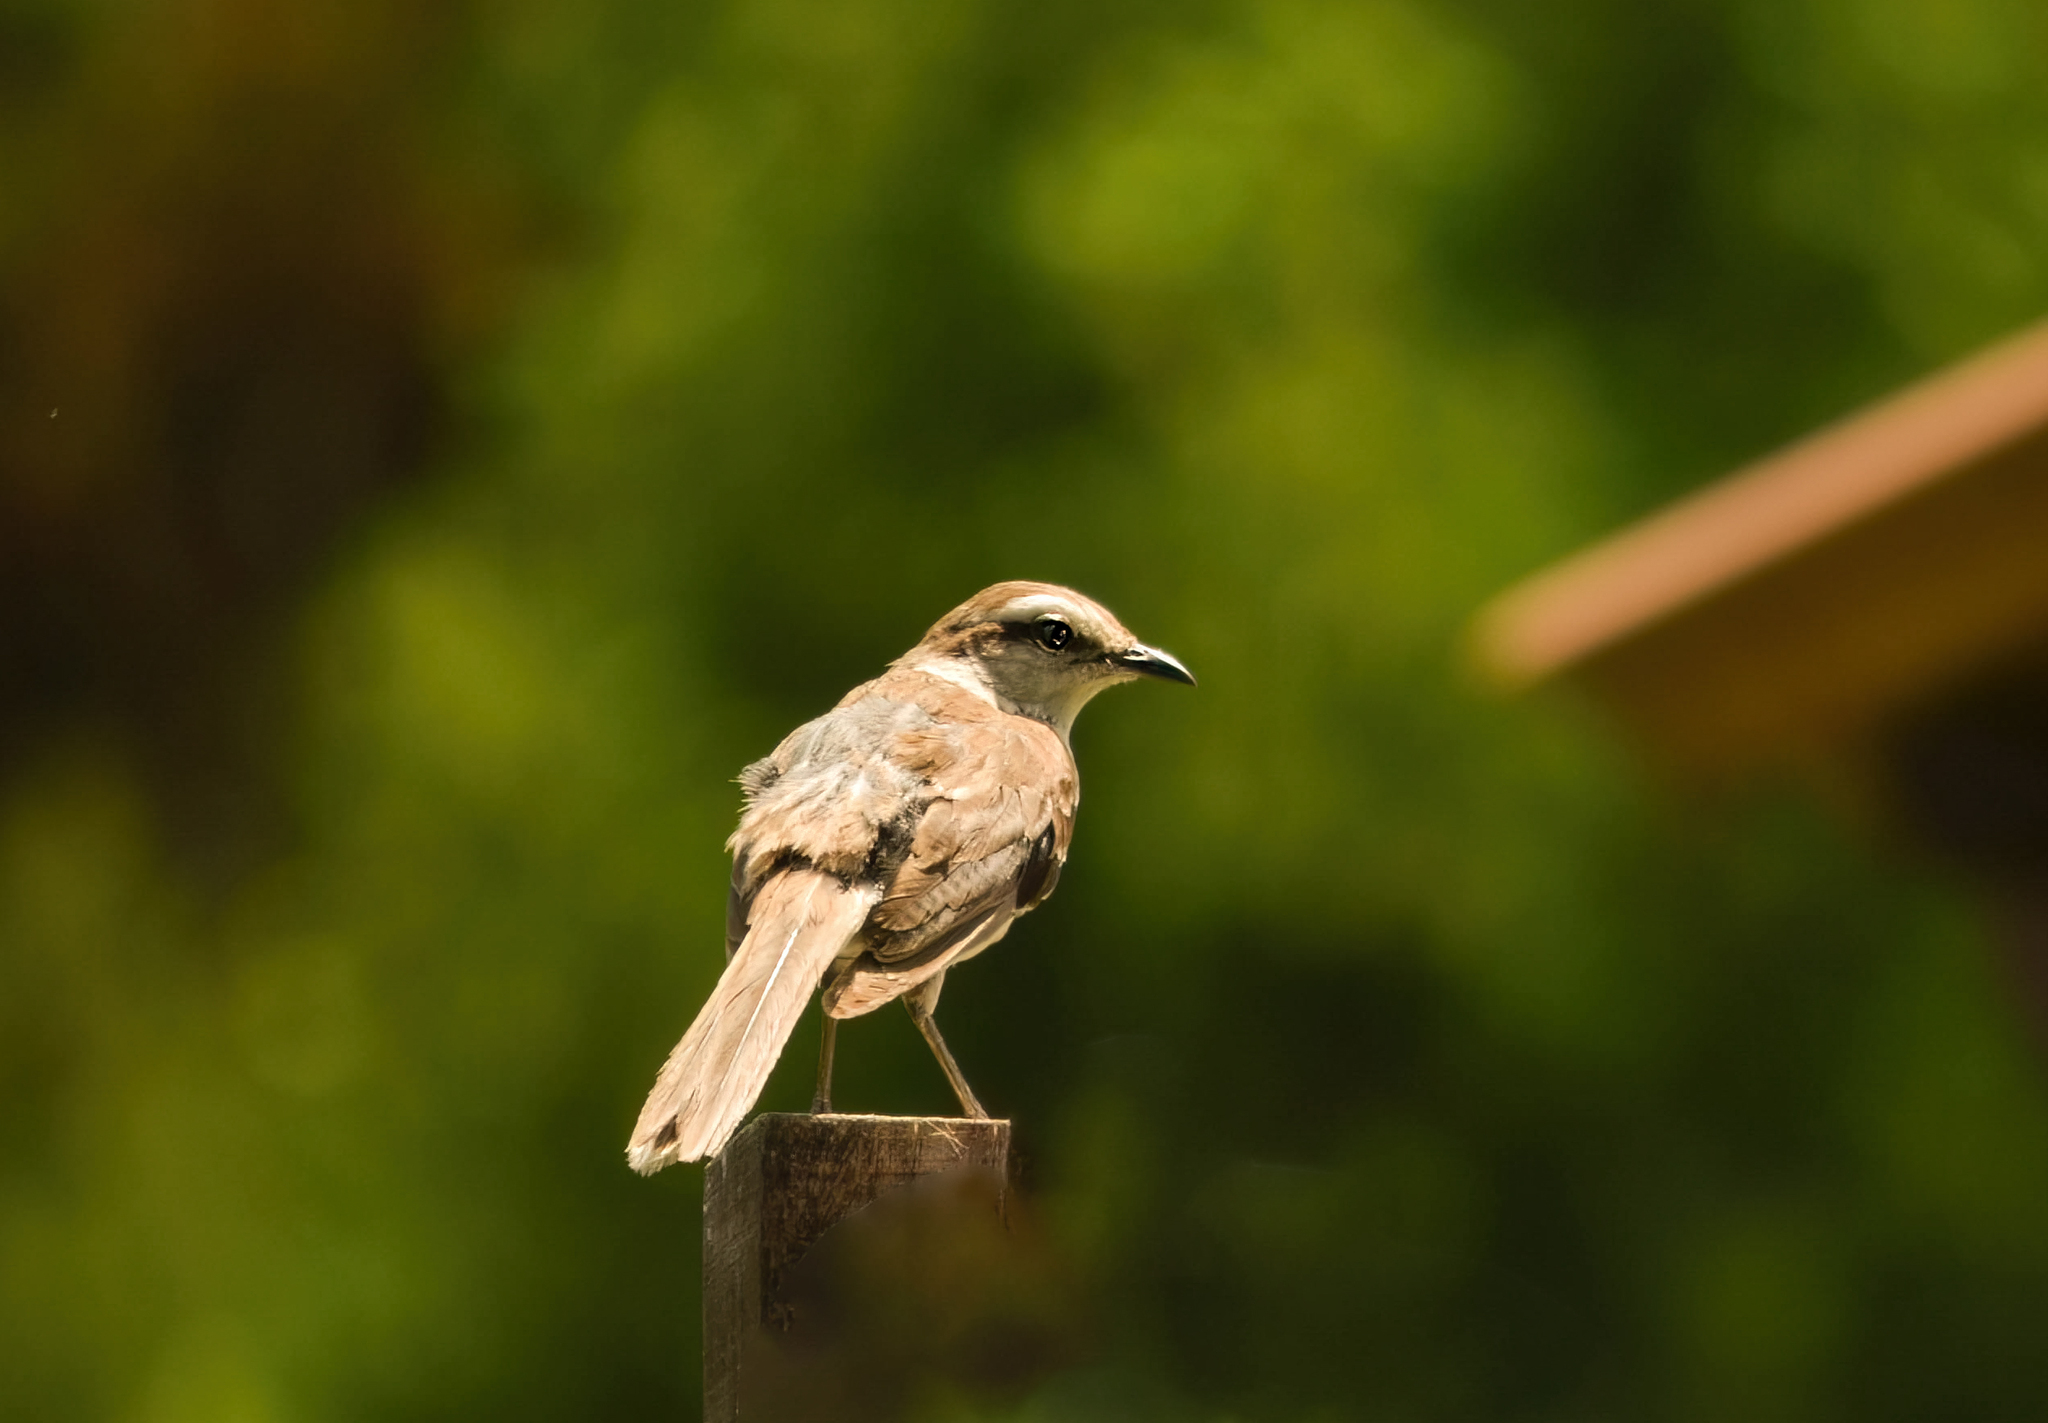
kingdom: Animalia
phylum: Chordata
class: Aves
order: Passeriformes
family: Mimidae
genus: Mimus
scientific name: Mimus saturninus
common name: Chalk-browed mockingbird
